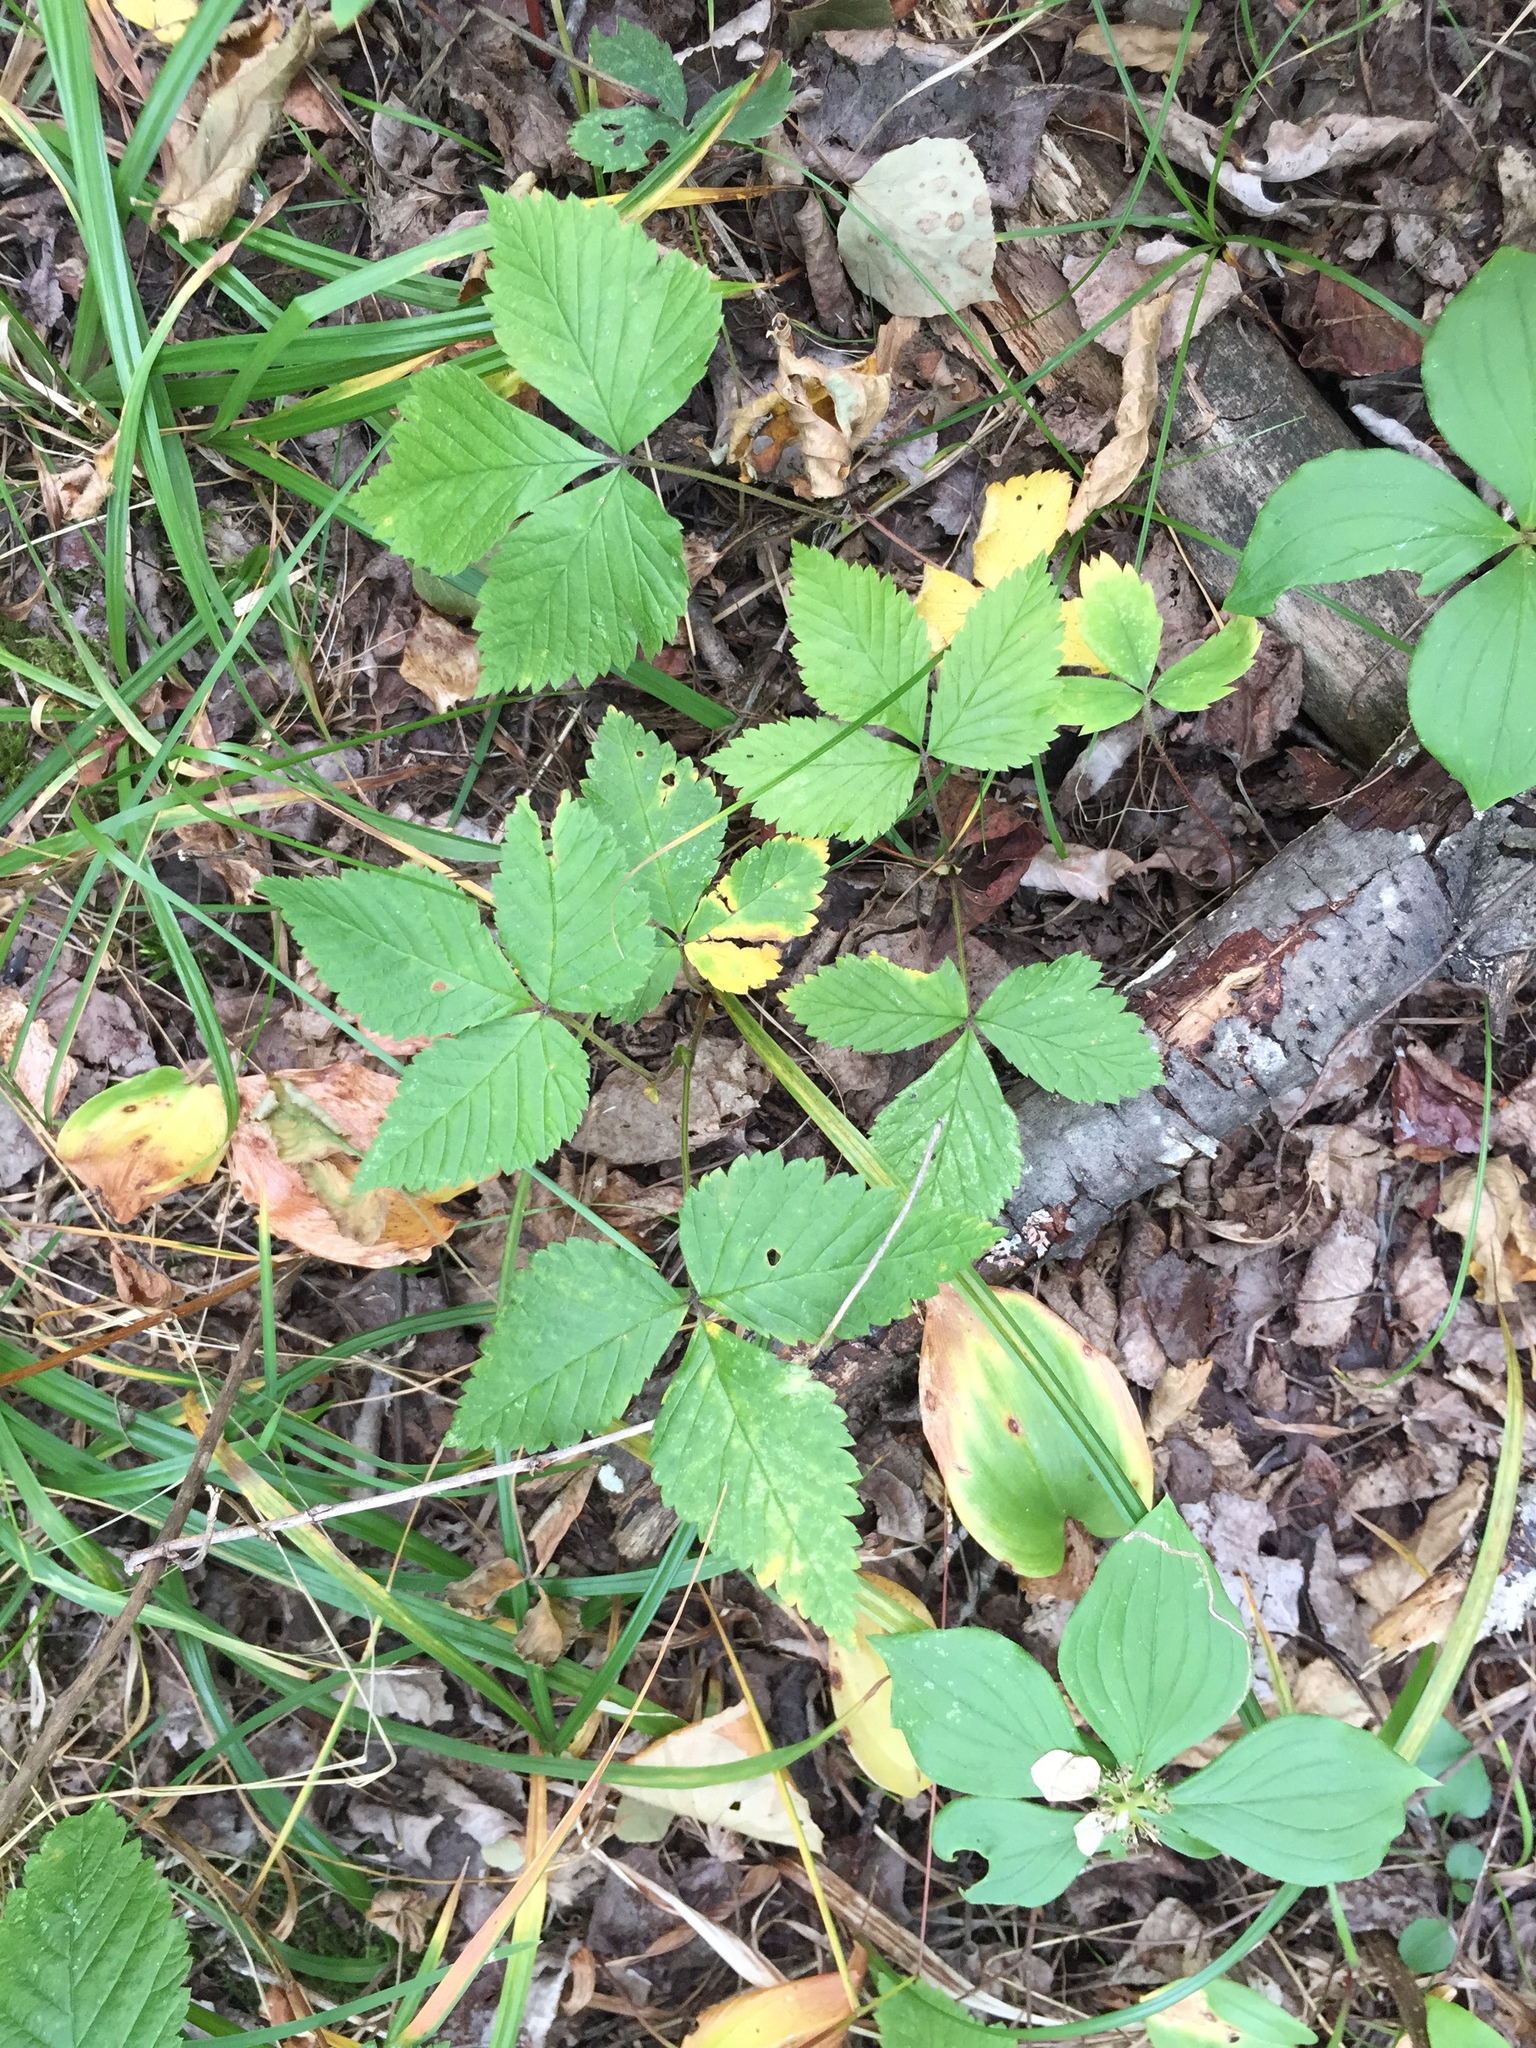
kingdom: Plantae
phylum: Tracheophyta
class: Magnoliopsida
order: Rosales
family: Rosaceae
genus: Rubus
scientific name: Rubus pubescens
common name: Dwarf raspberry
